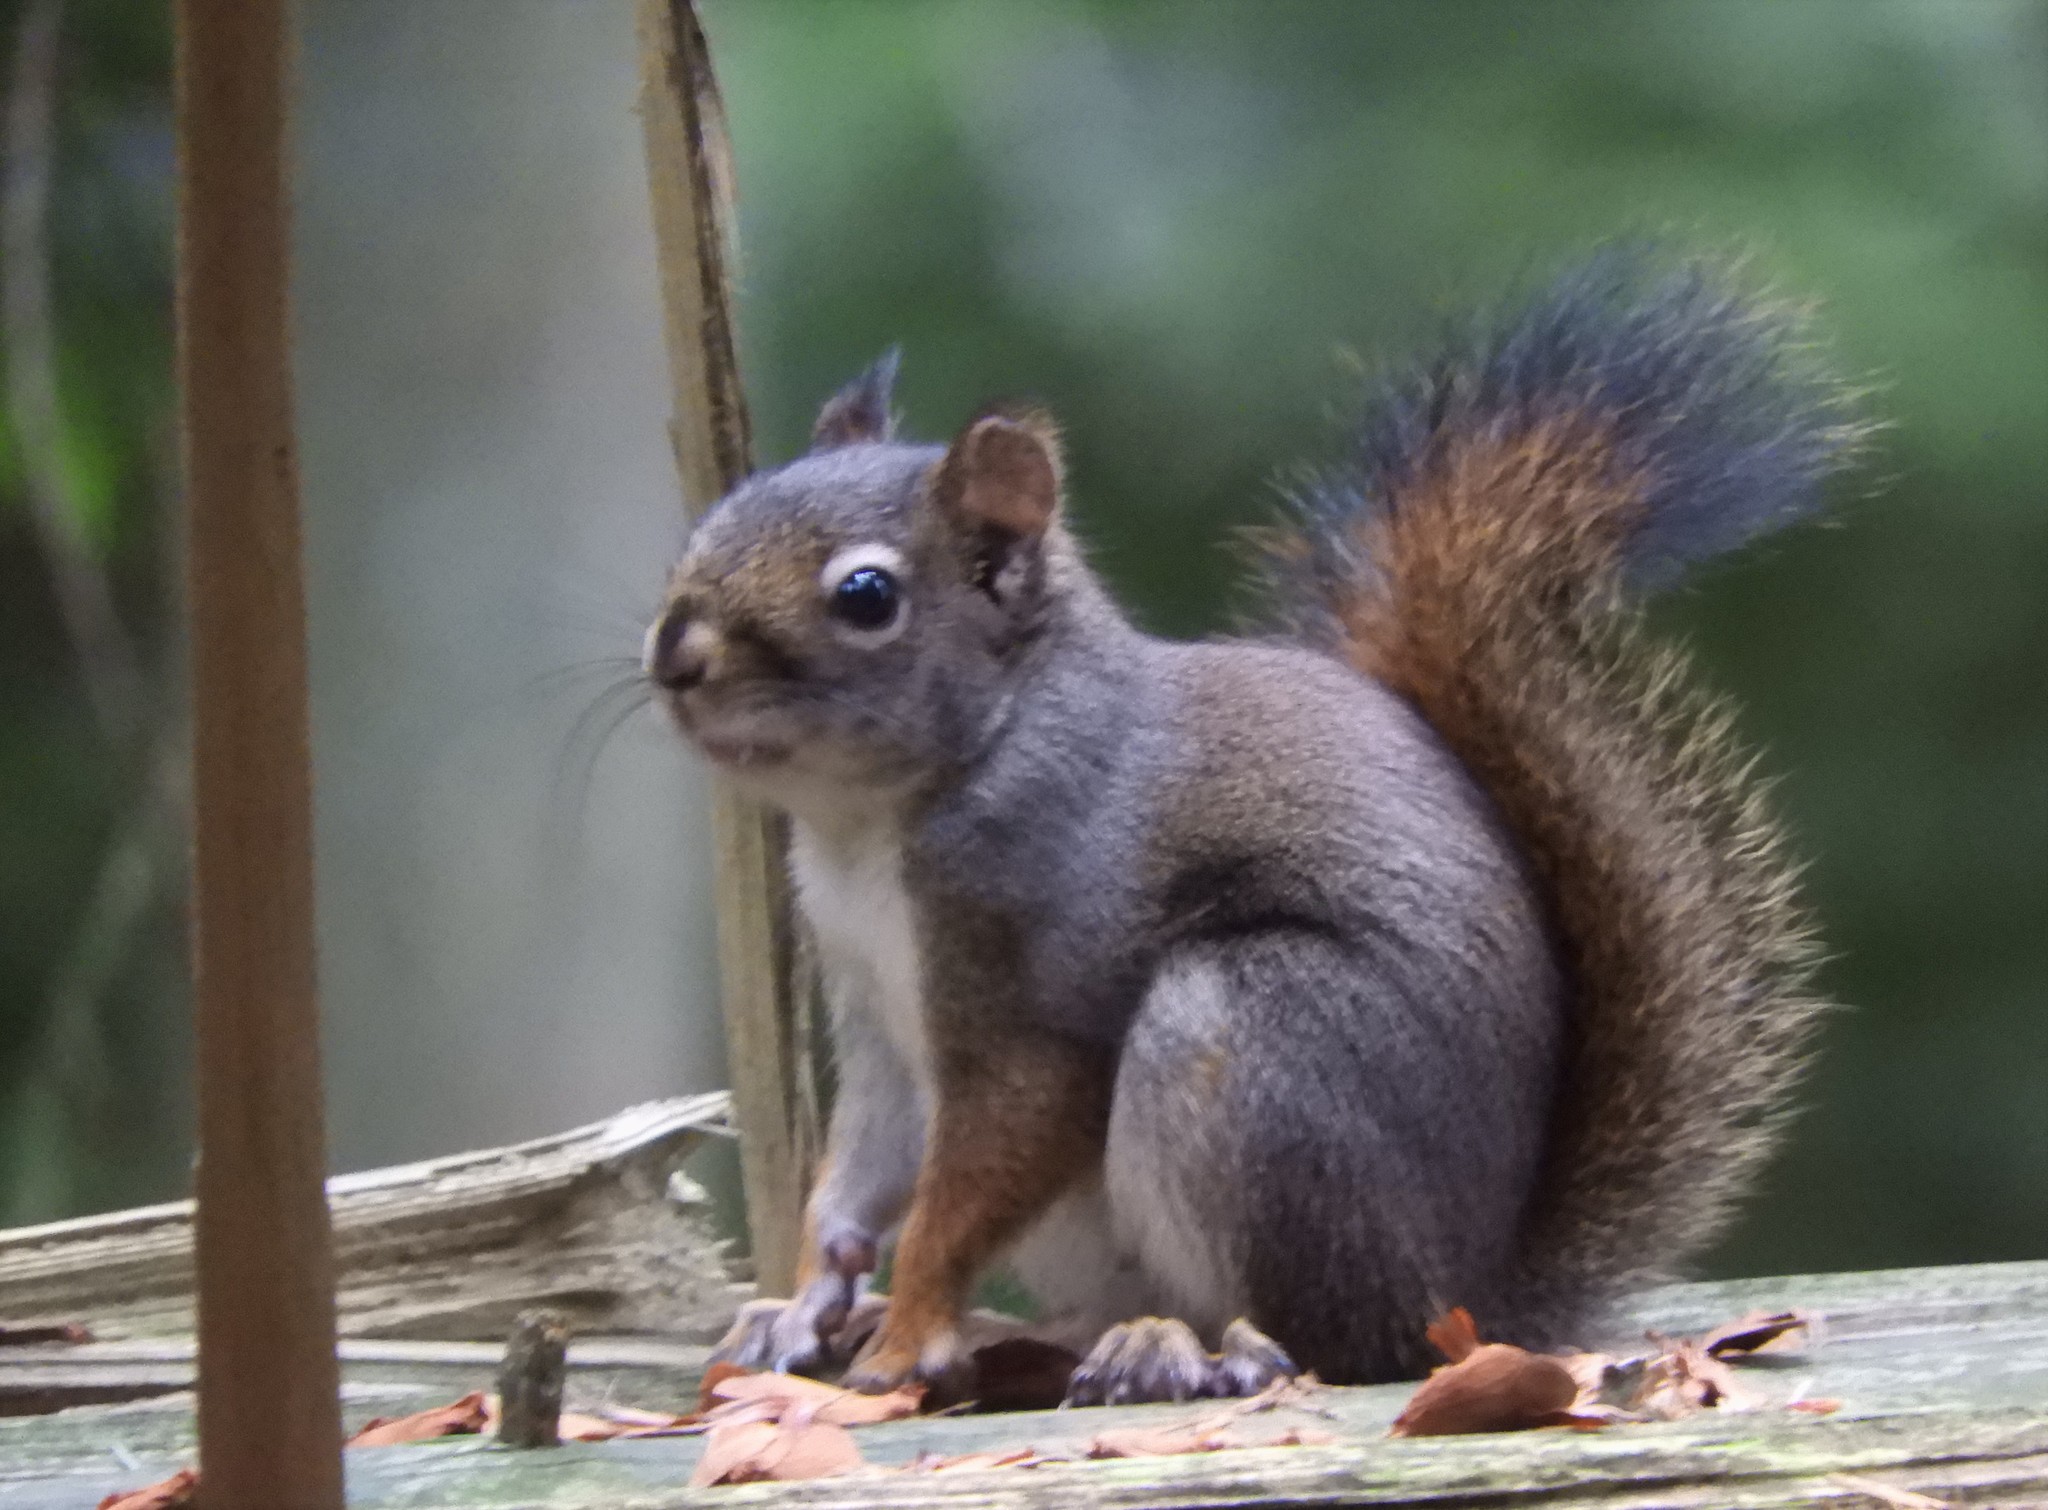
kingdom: Animalia
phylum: Chordata
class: Mammalia
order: Rodentia
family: Sciuridae
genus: Tamiasciurus
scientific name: Tamiasciurus hudsonicus
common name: Red squirrel
